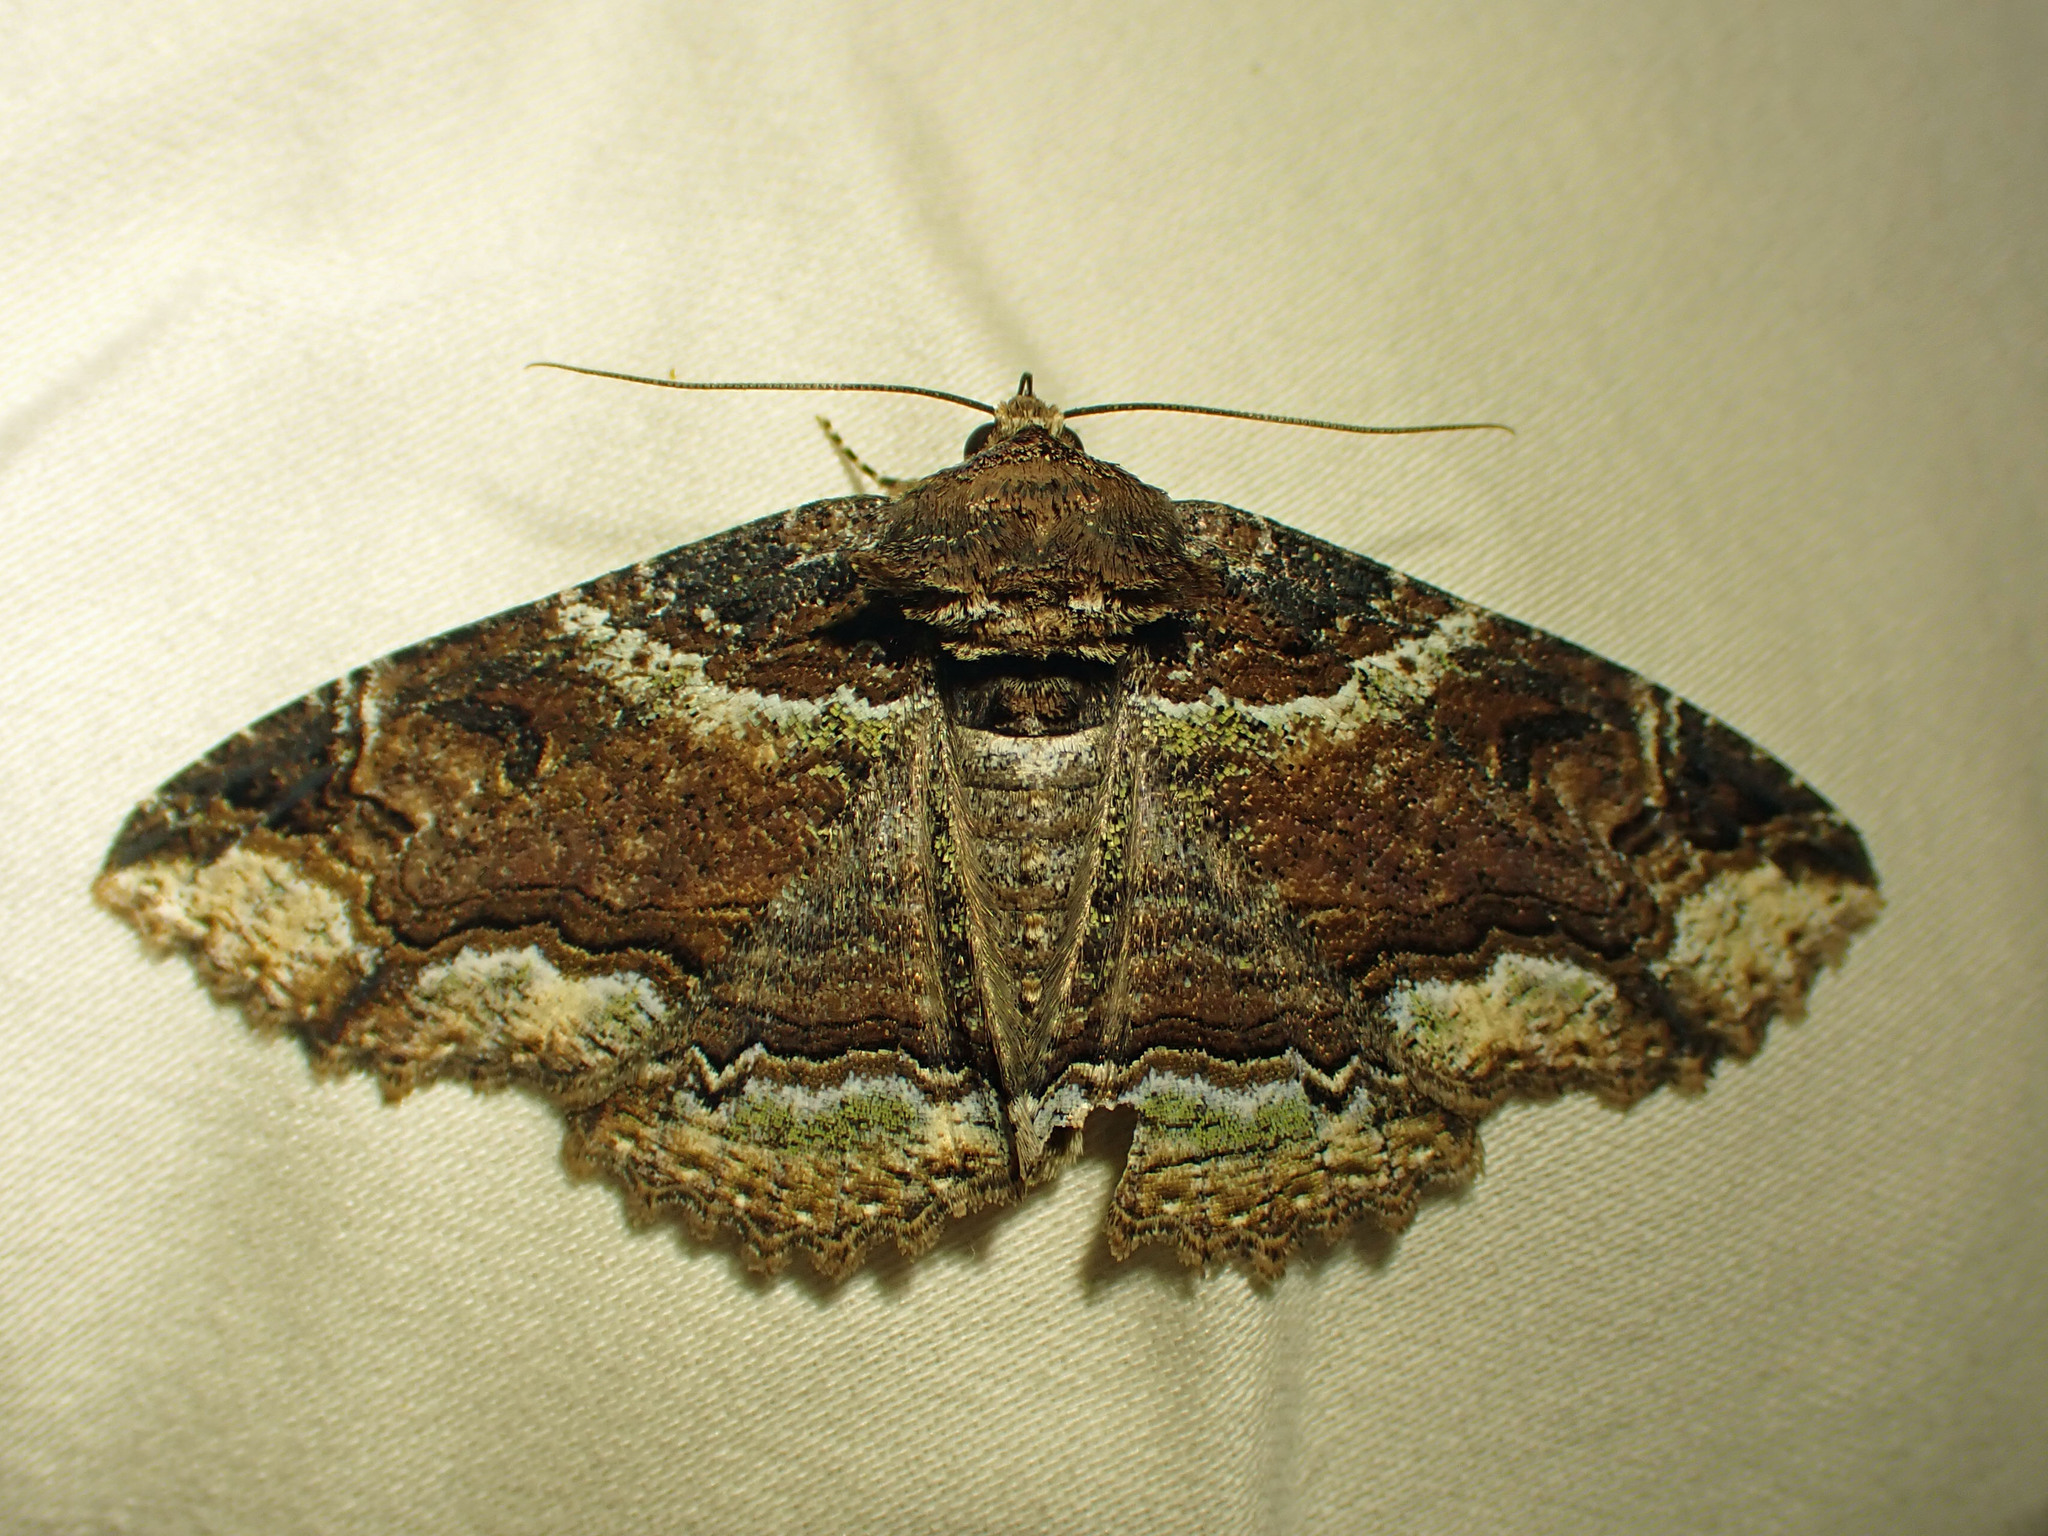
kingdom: Animalia
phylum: Arthropoda
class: Insecta
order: Lepidoptera
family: Erebidae
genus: Zale
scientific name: Zale minerea
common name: Colorful zale moth
